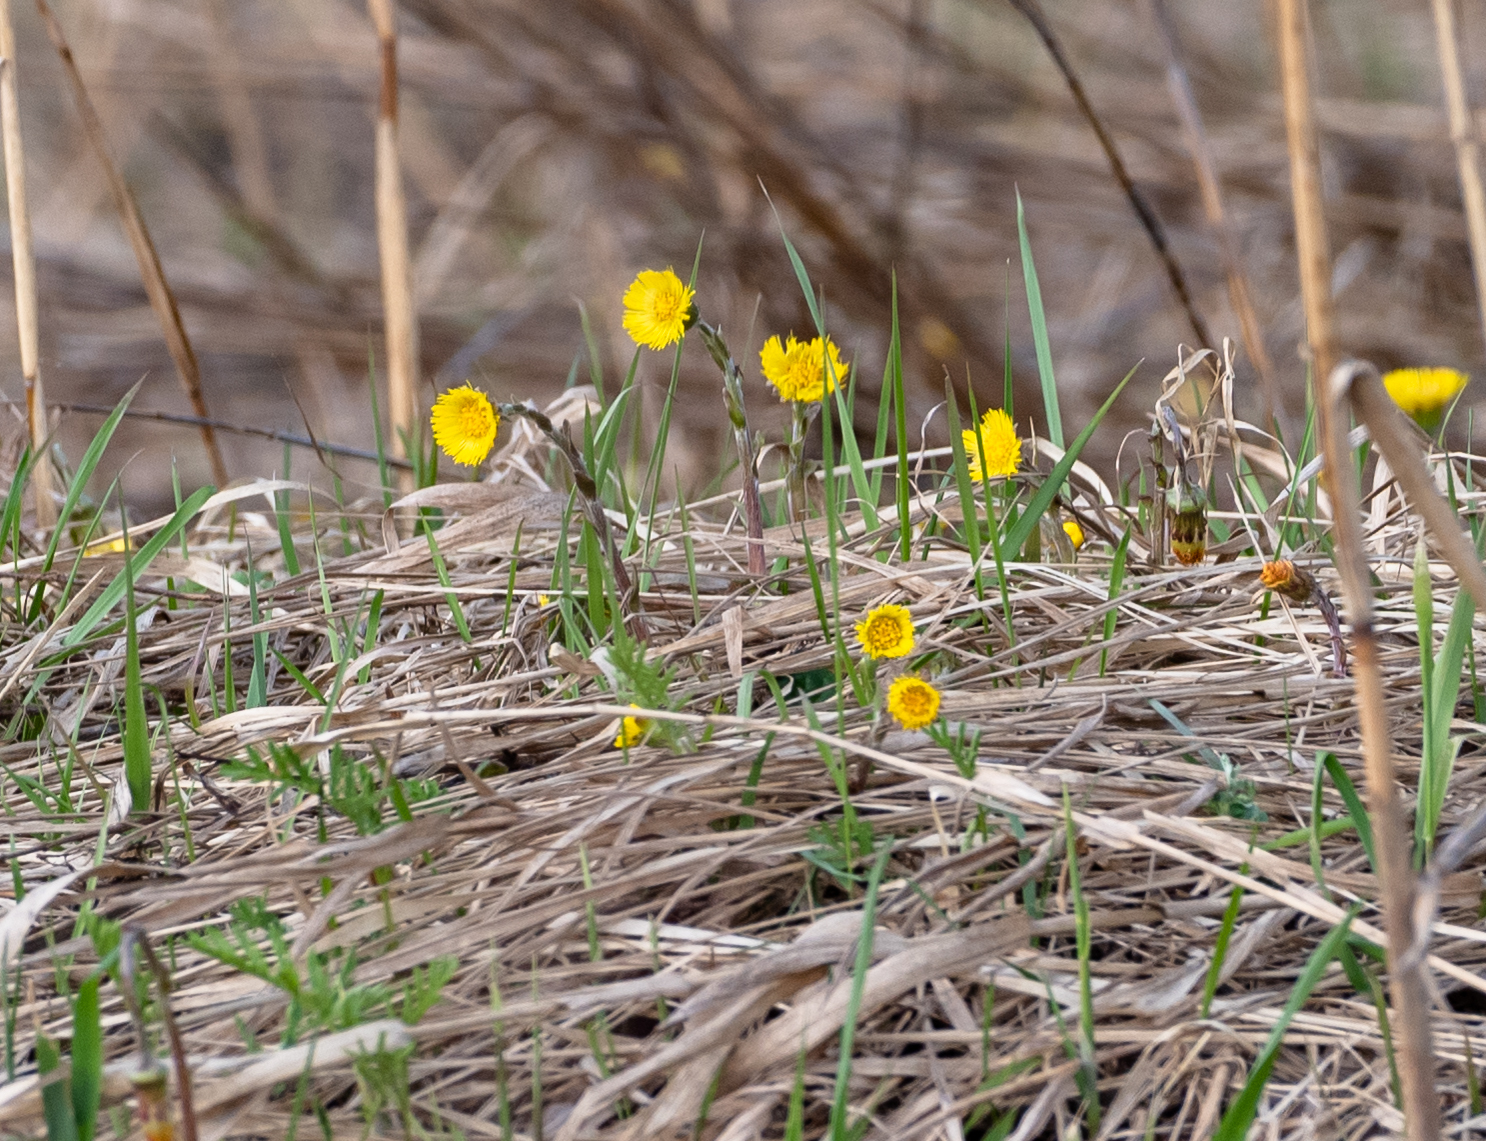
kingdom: Plantae
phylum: Tracheophyta
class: Magnoliopsida
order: Asterales
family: Asteraceae
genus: Tussilago
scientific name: Tussilago farfara
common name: Coltsfoot
